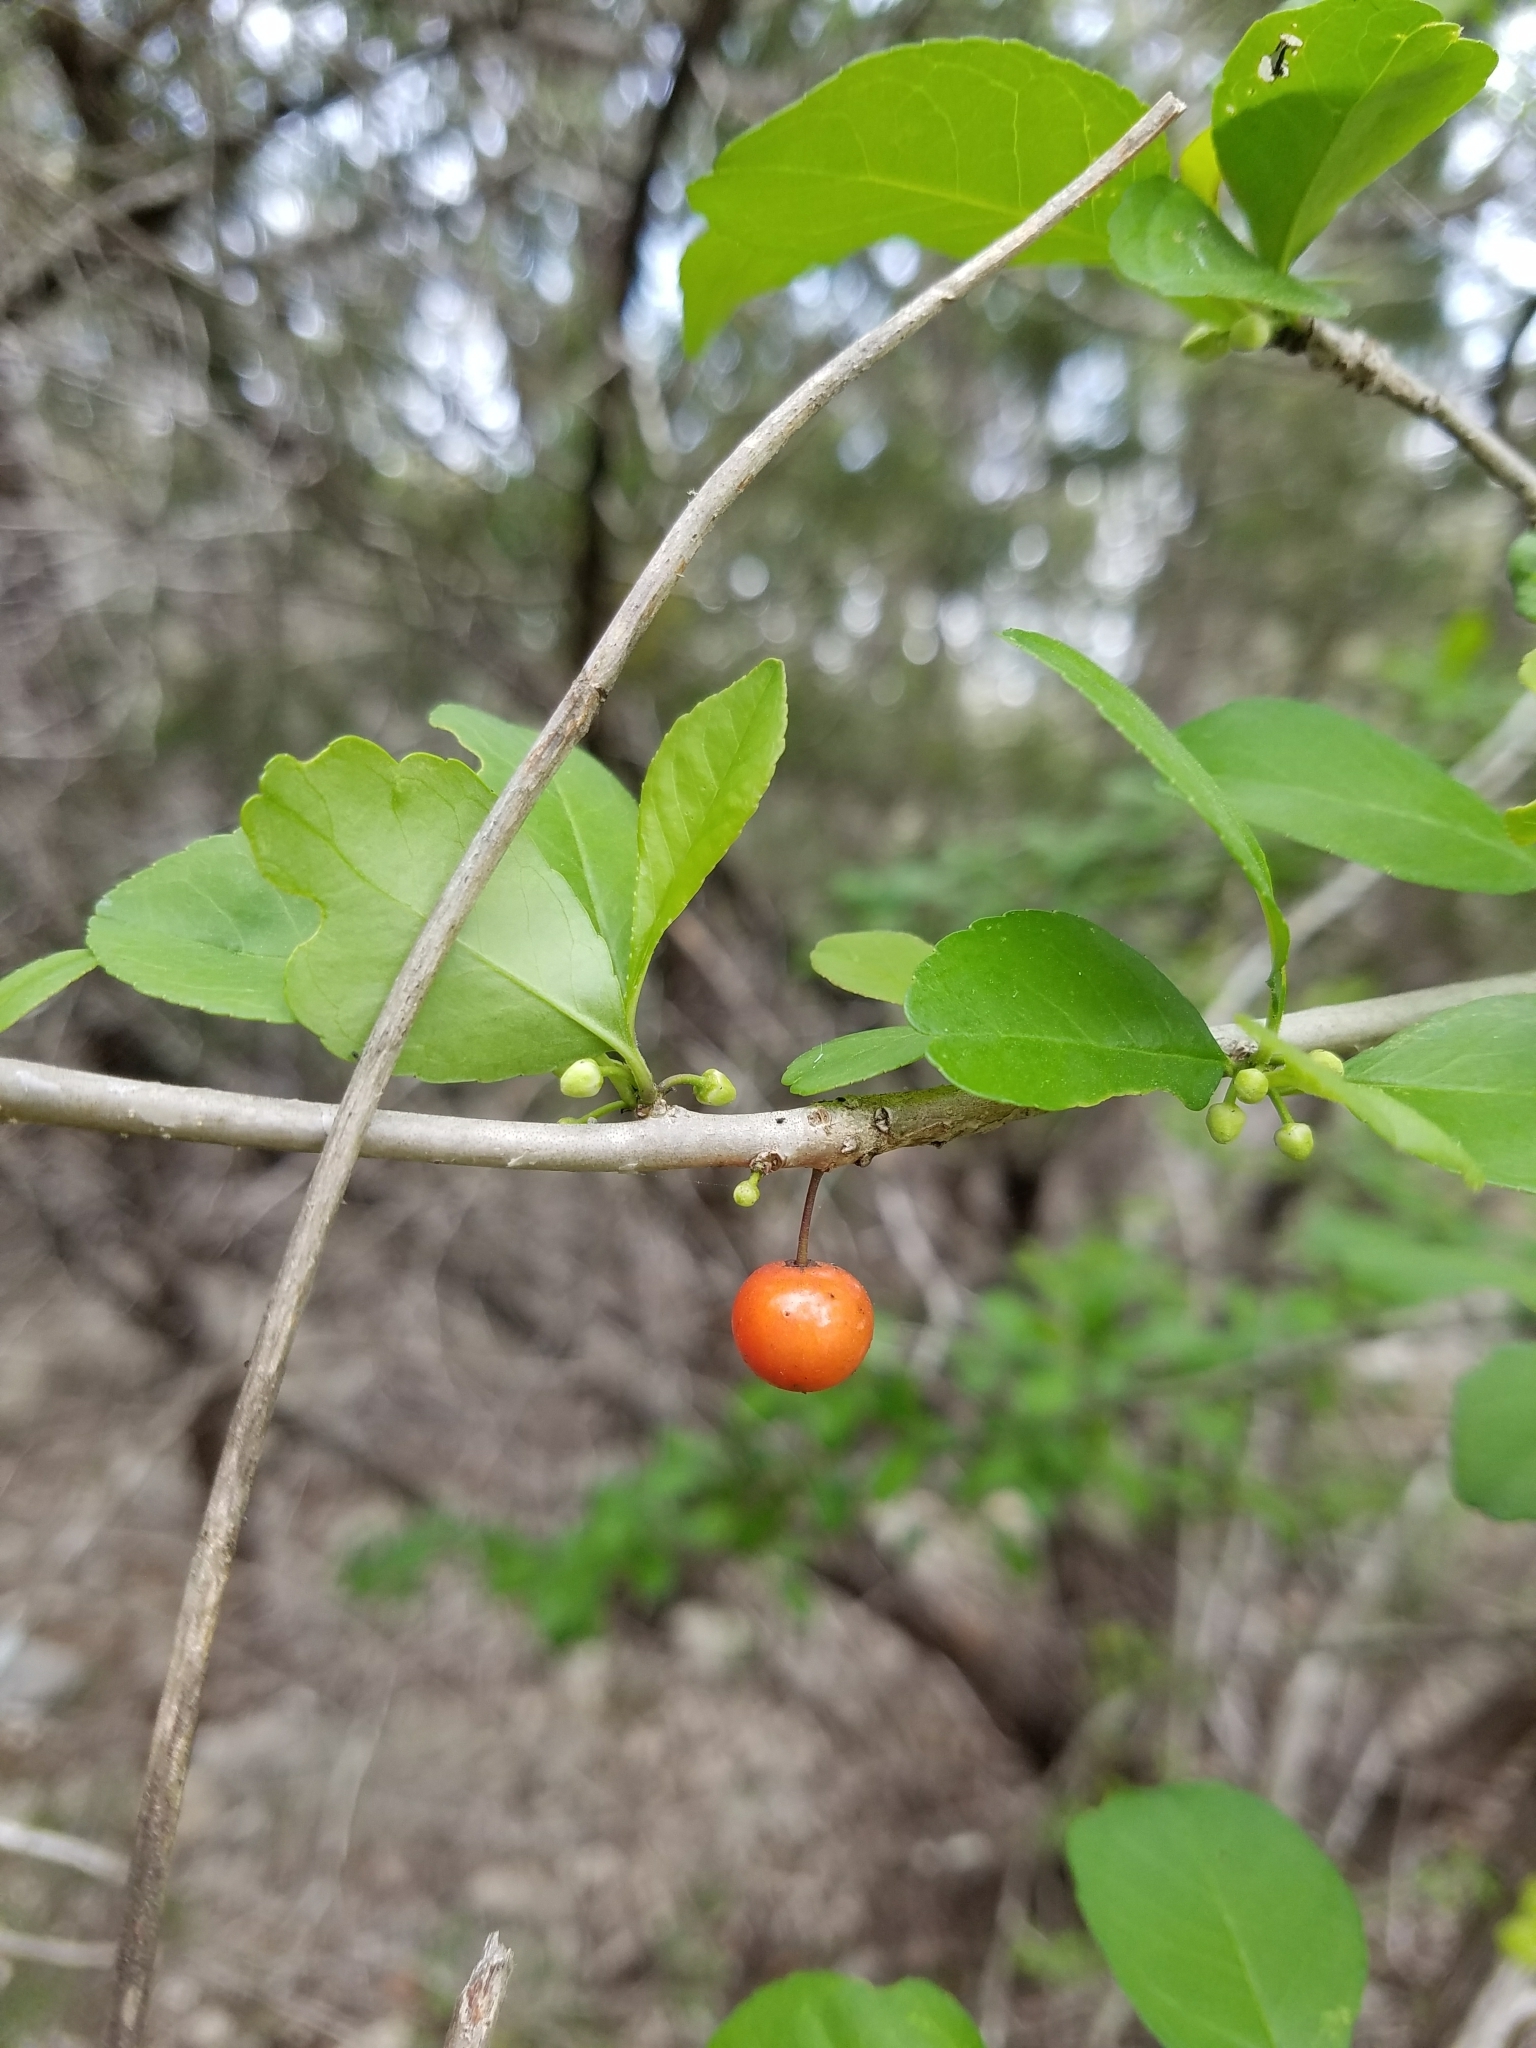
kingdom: Plantae
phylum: Tracheophyta
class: Magnoliopsida
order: Aquifoliales
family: Aquifoliaceae
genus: Ilex
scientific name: Ilex decidua
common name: Possum-haw
